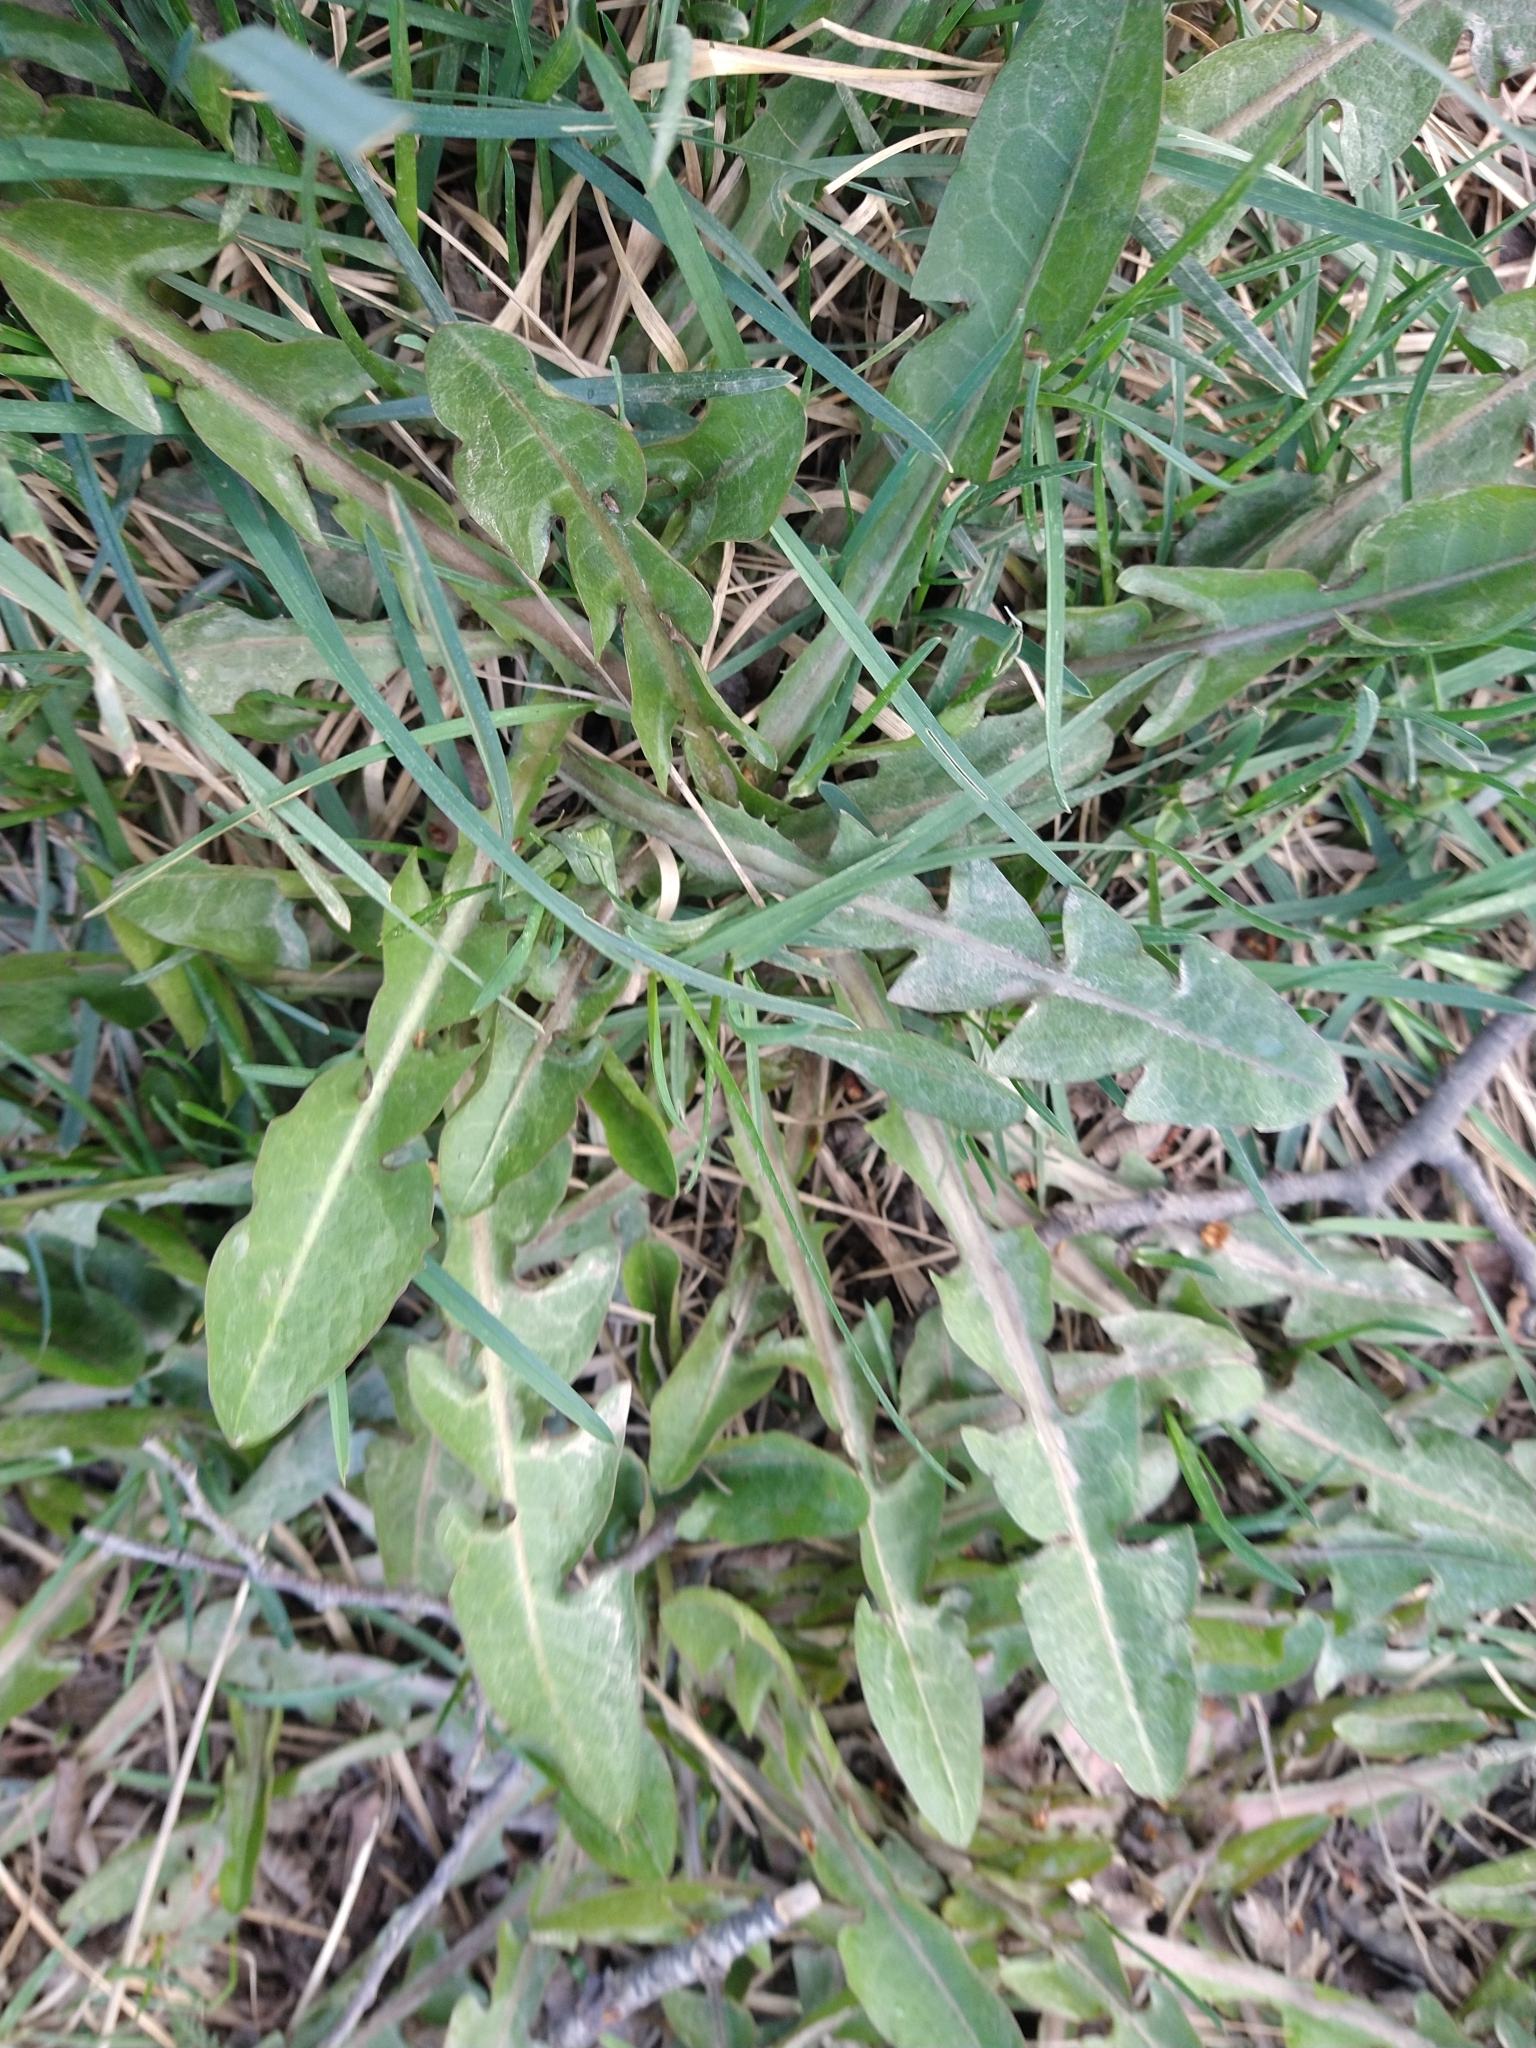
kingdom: Plantae
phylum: Tracheophyta
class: Magnoliopsida
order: Asterales
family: Asteraceae
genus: Taraxacum
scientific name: Taraxacum officinale
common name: Common dandelion
